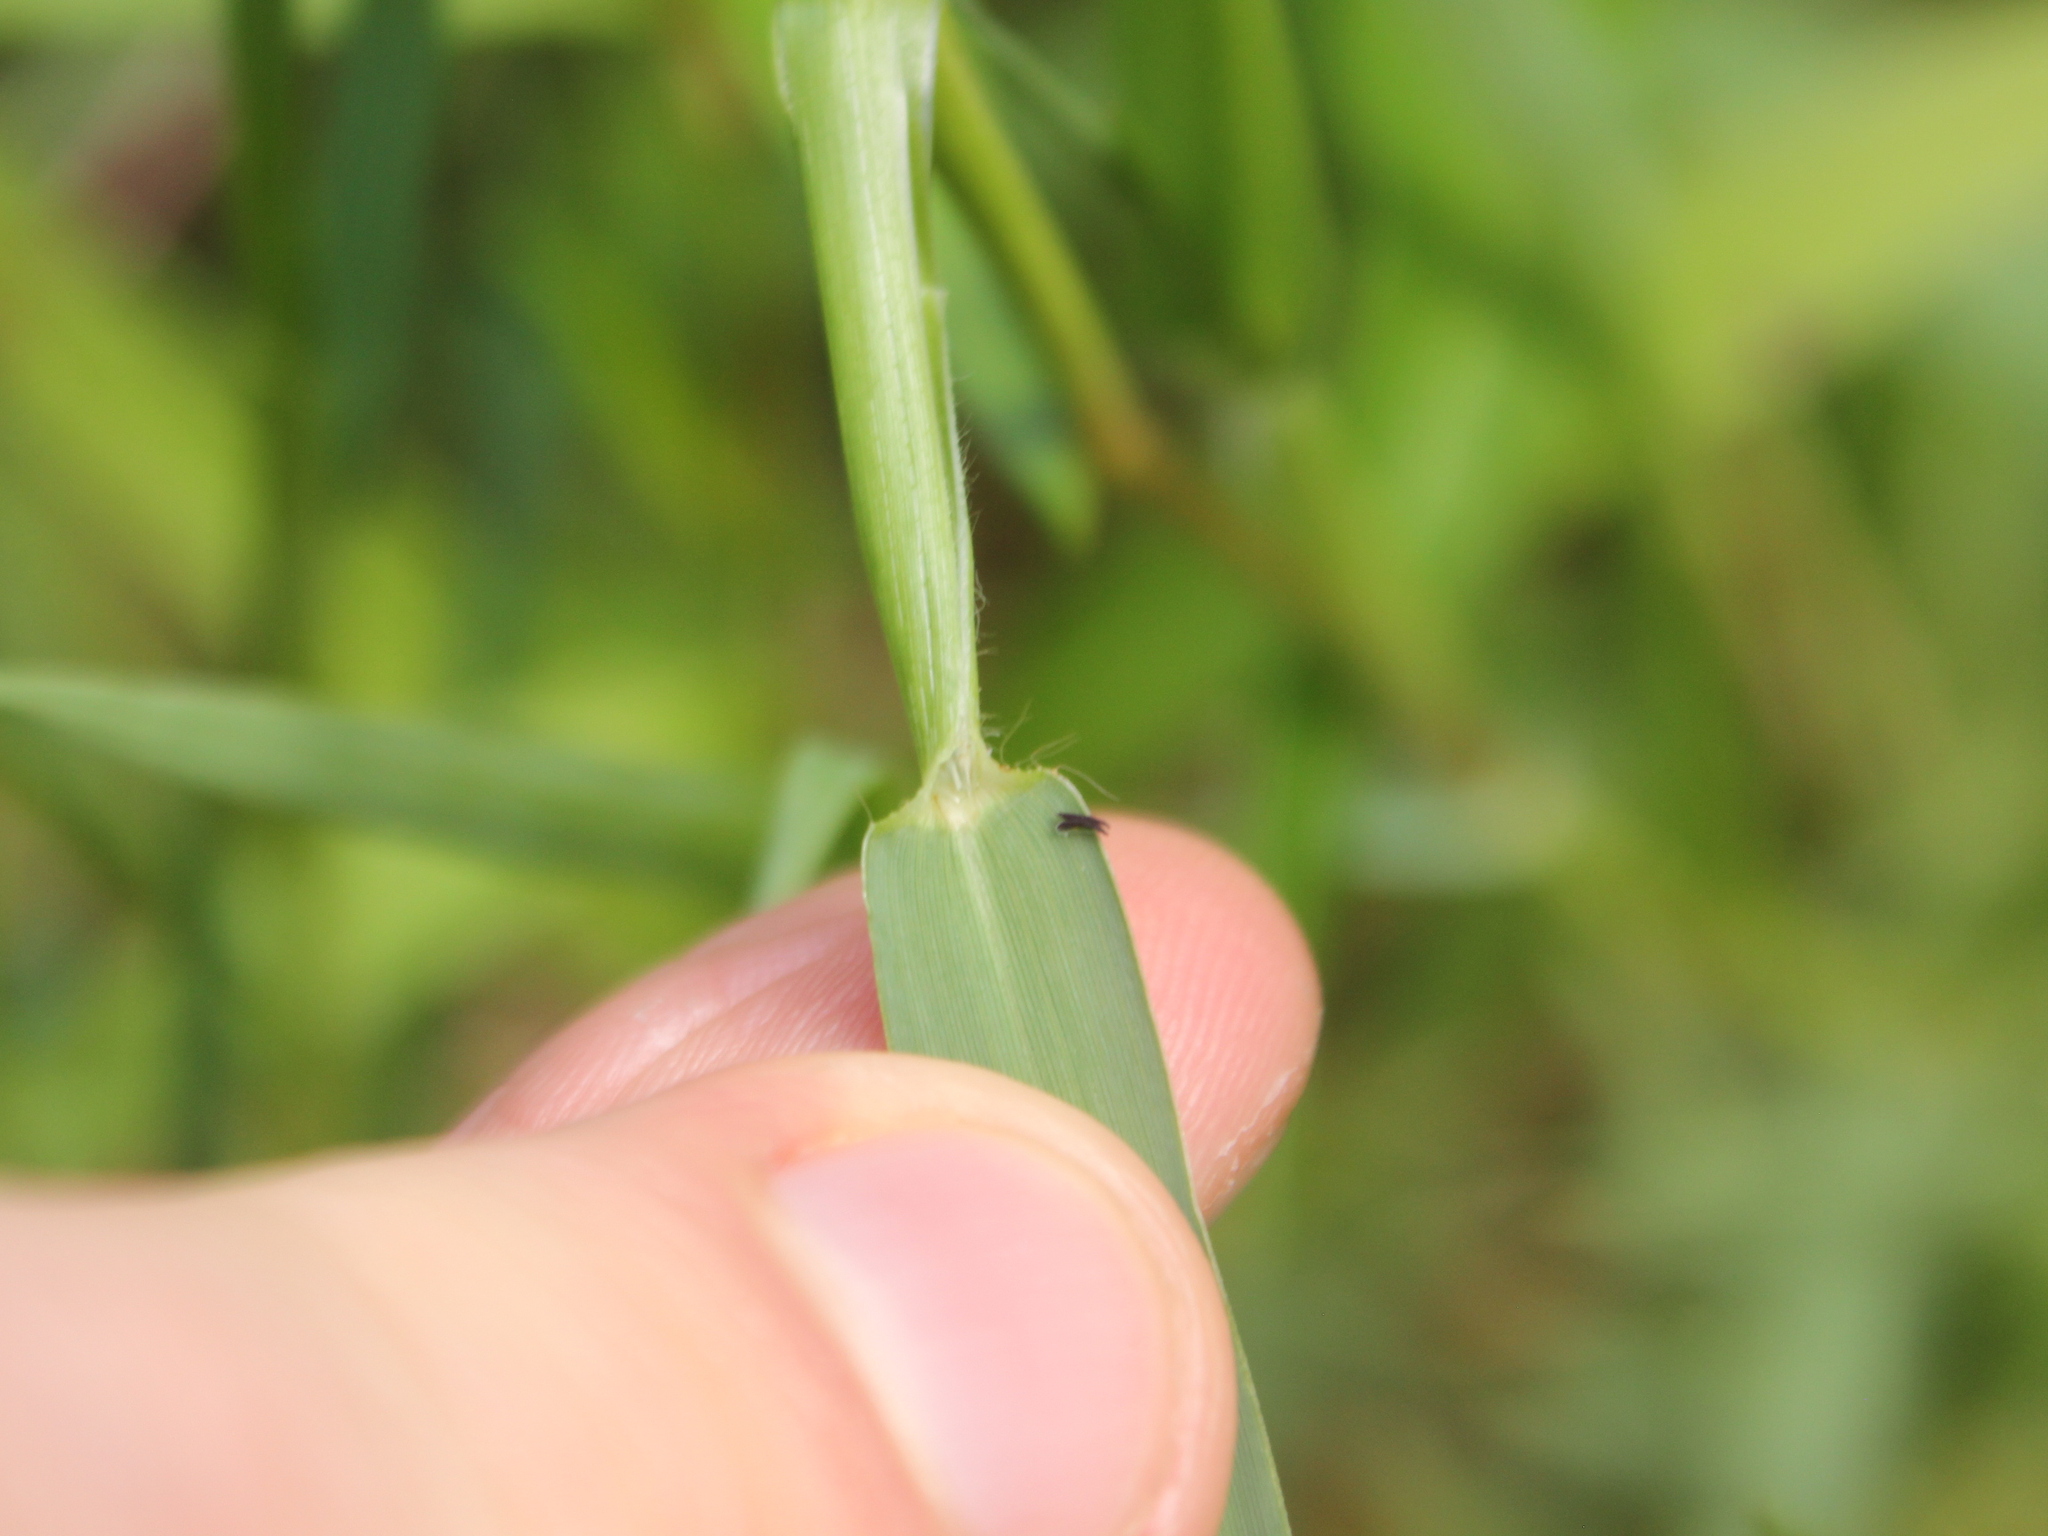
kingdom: Plantae
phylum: Tracheophyta
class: Liliopsida
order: Poales
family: Poaceae
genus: Paspalum
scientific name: Paspalum distichum
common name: Knotgrass
